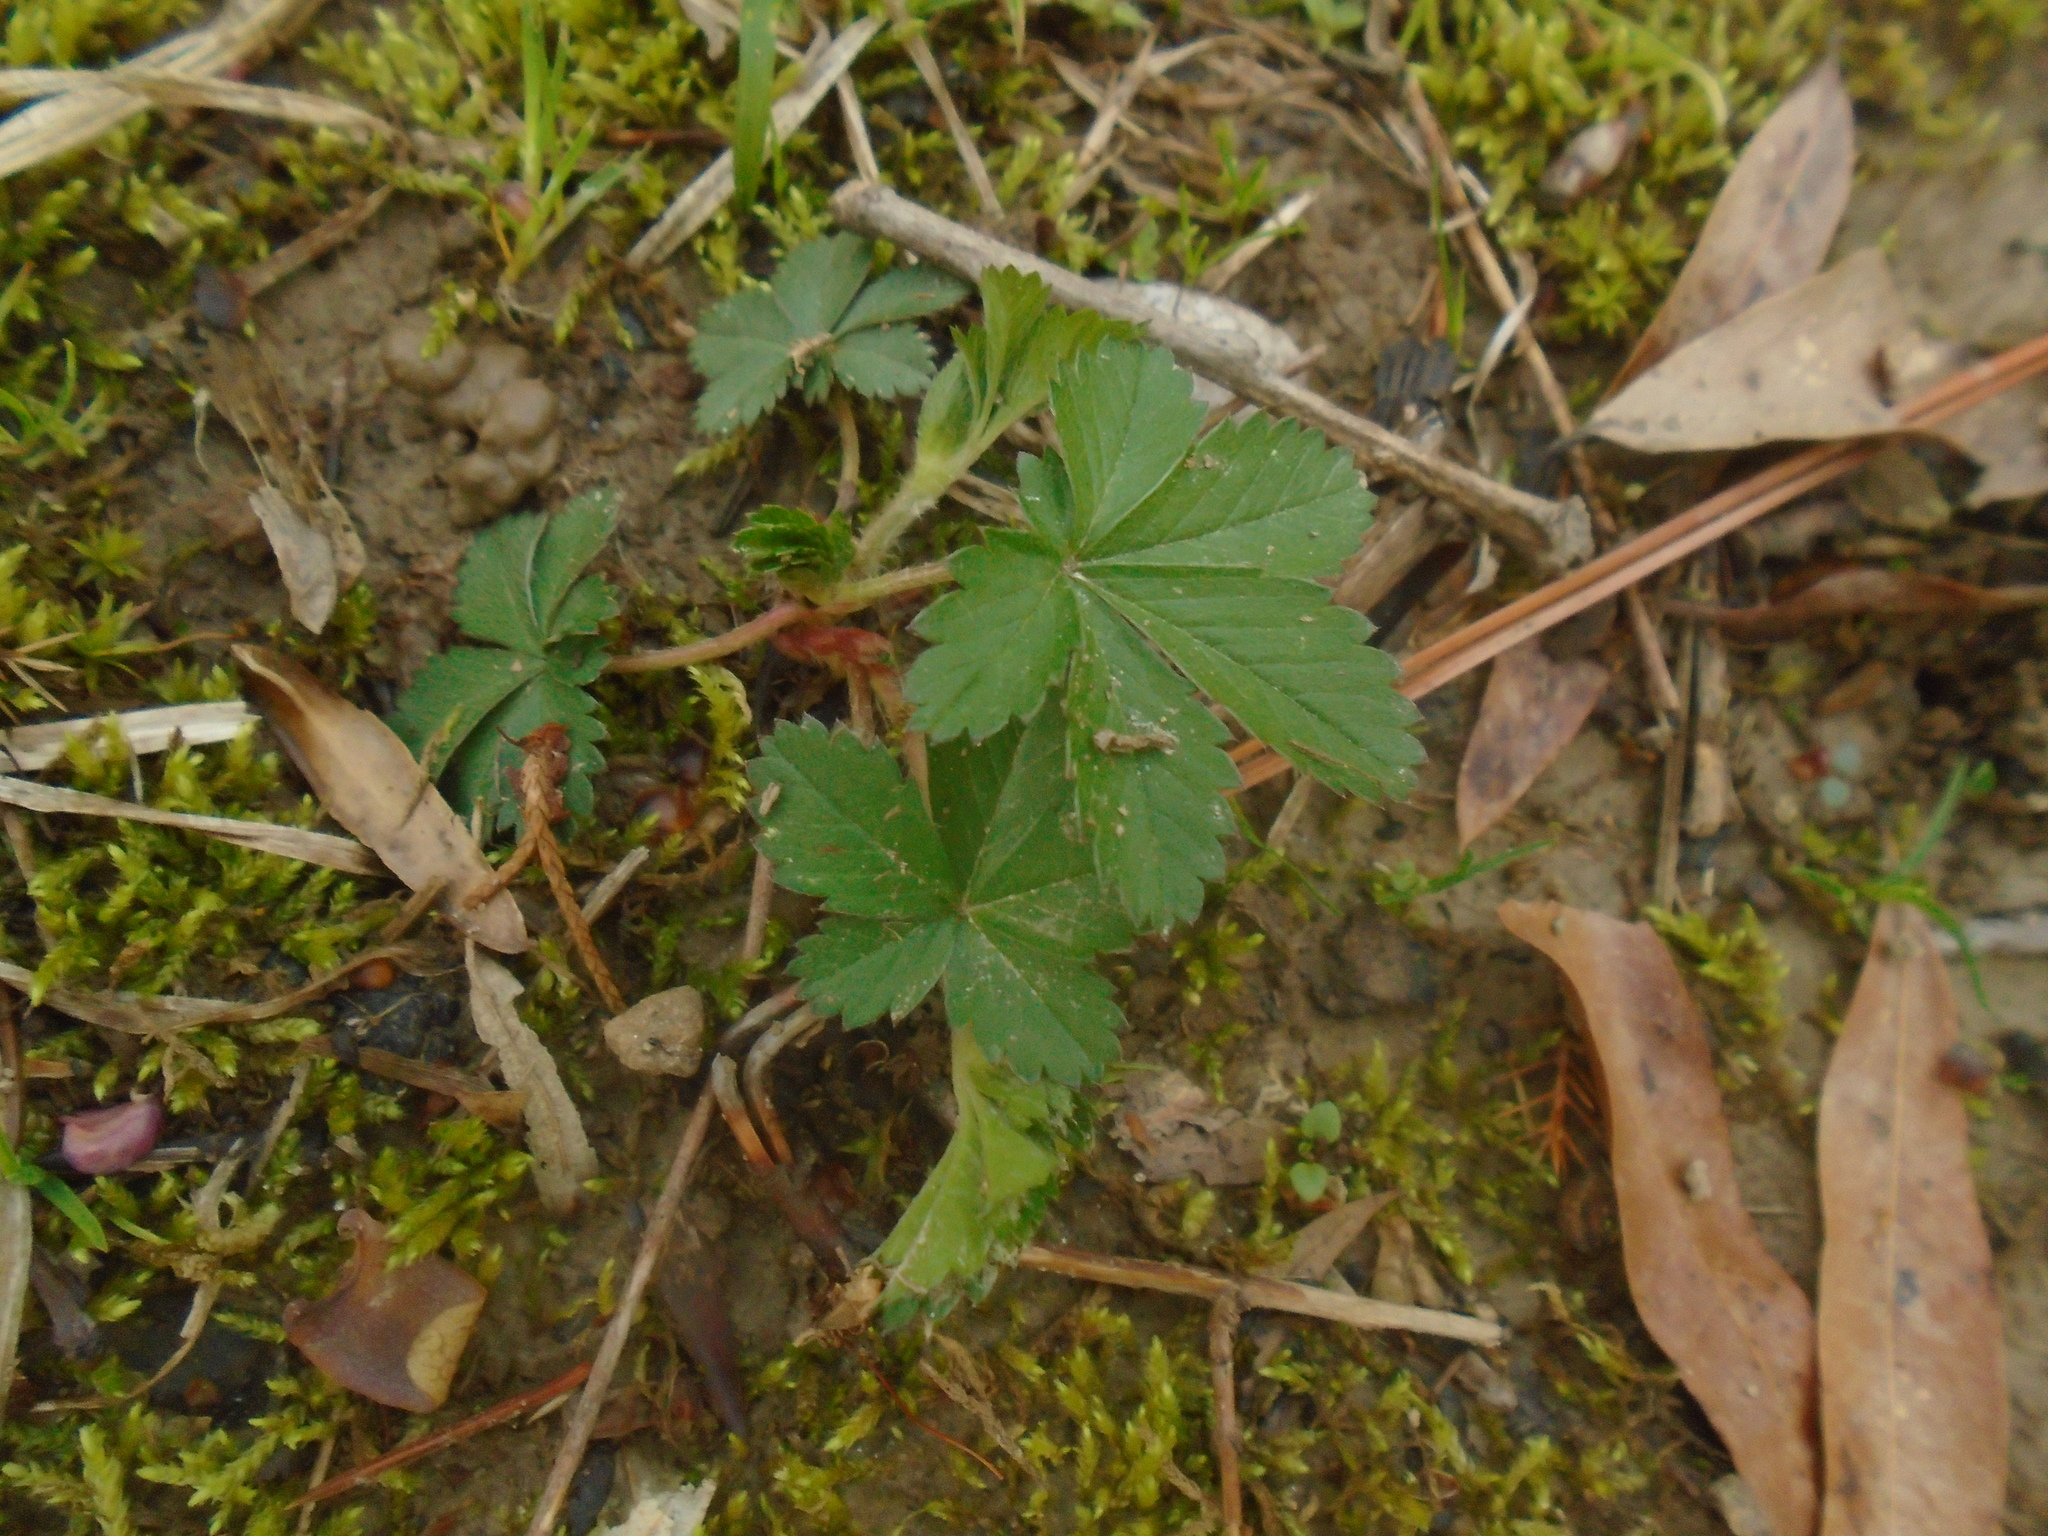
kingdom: Plantae
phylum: Tracheophyta
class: Magnoliopsida
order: Rosales
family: Rosaceae
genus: Potentilla
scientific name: Potentilla simplex
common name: Old field cinquefoil
